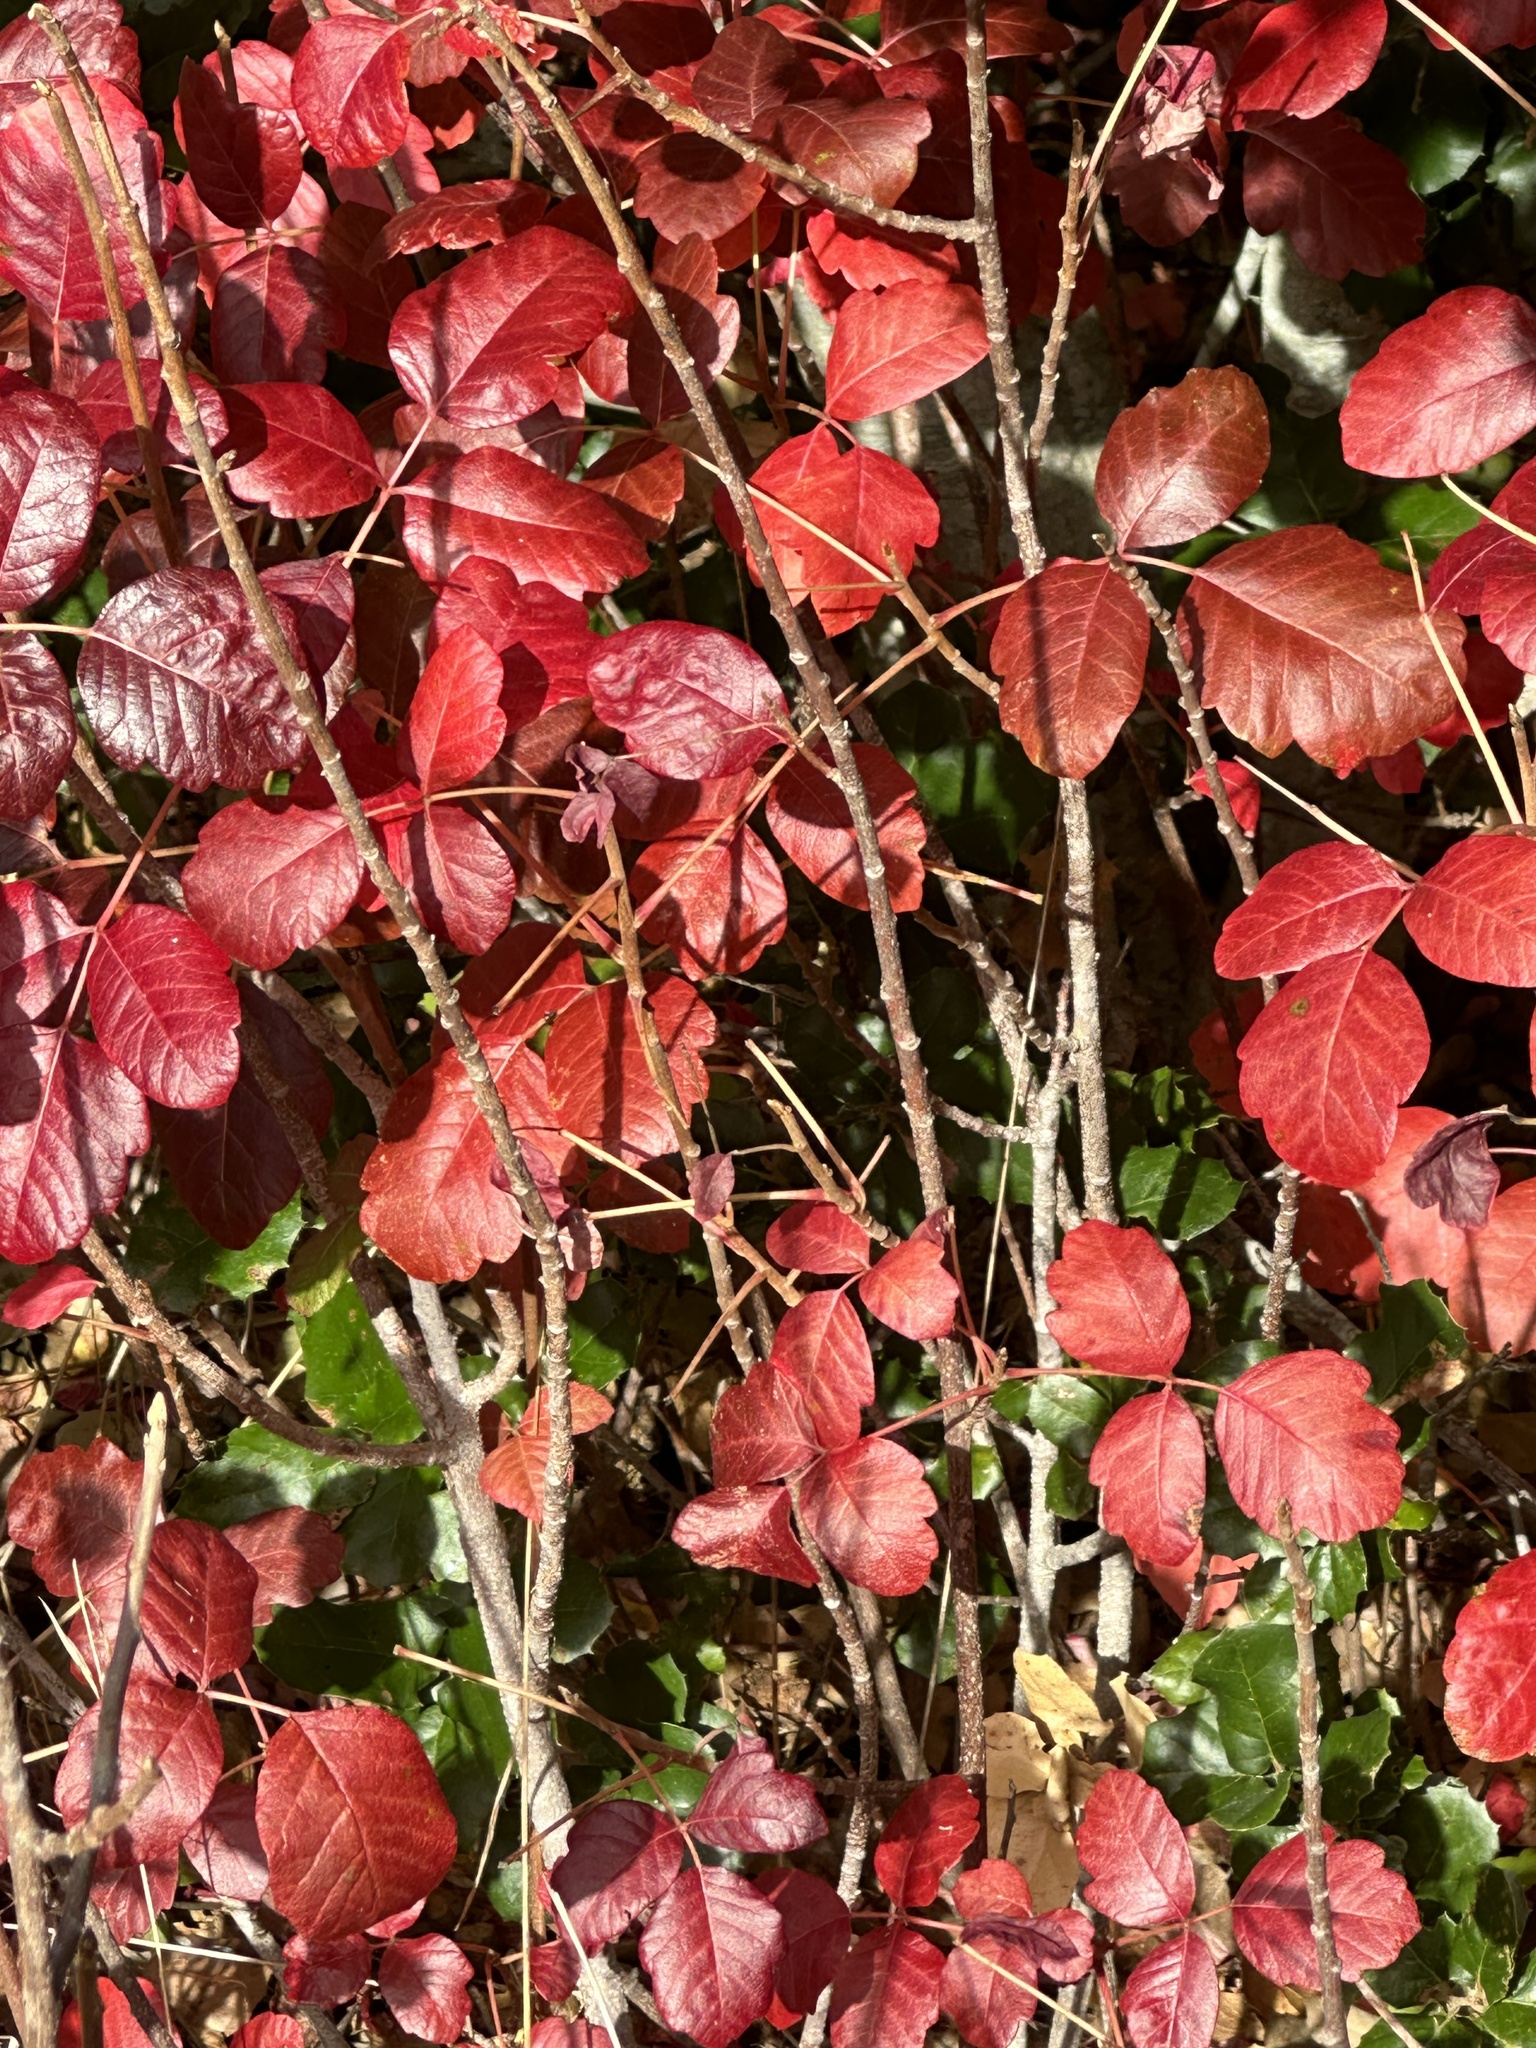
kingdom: Plantae
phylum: Tracheophyta
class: Magnoliopsida
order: Sapindales
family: Anacardiaceae
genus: Toxicodendron
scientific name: Toxicodendron diversilobum
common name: Pacific poison-oak
